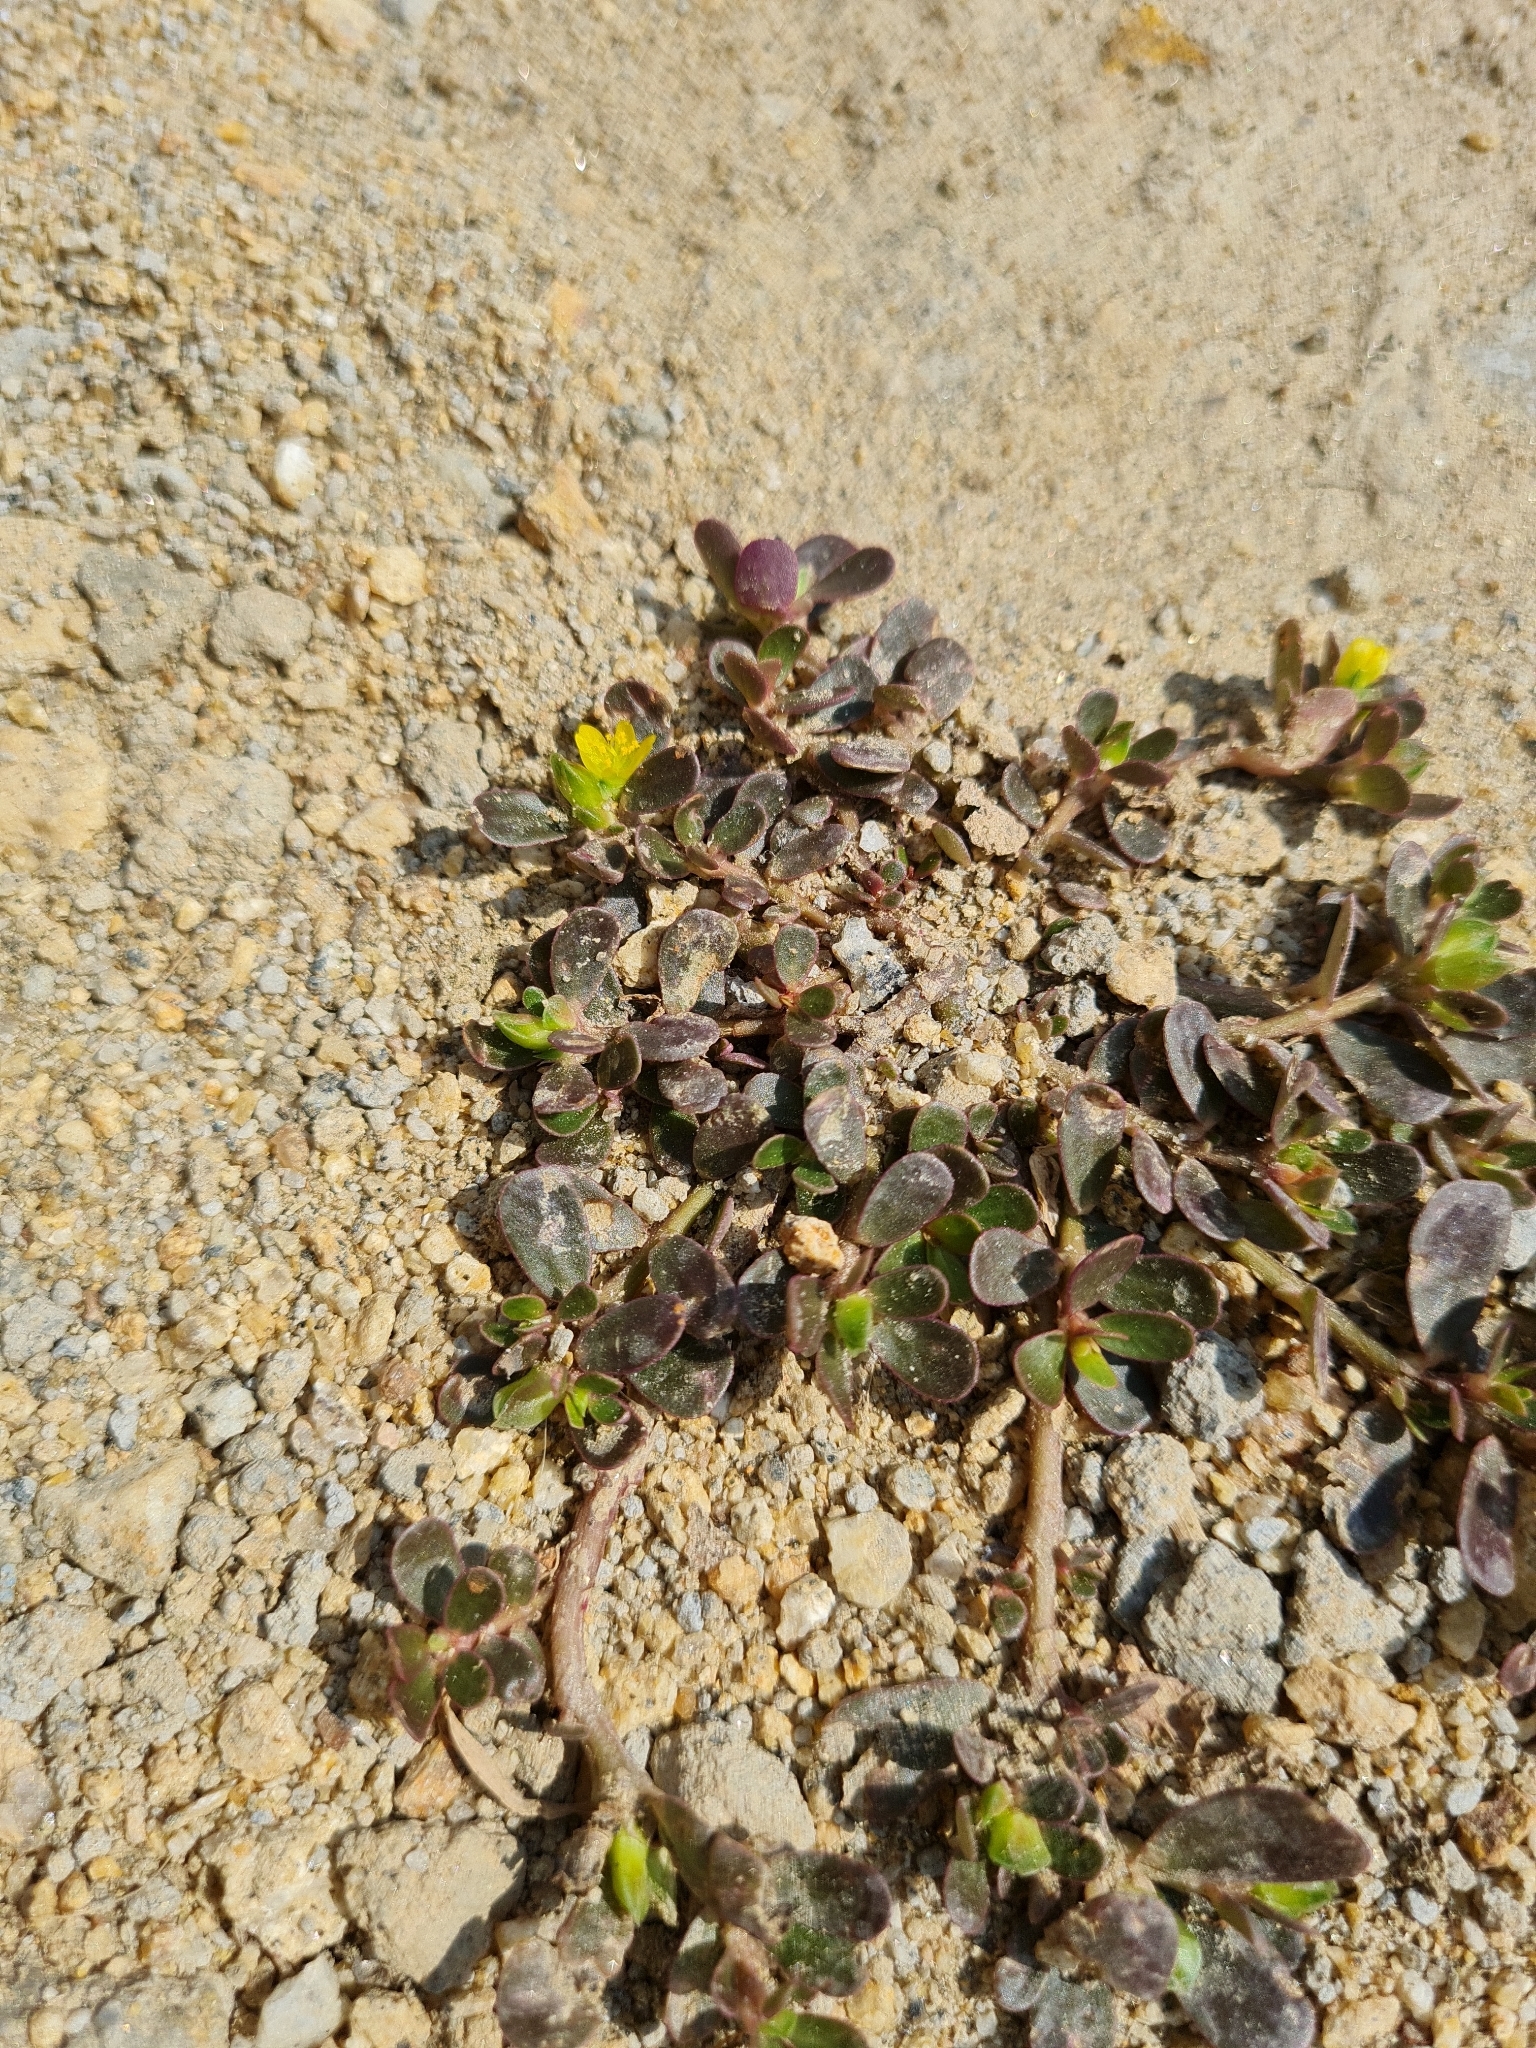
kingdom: Plantae
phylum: Tracheophyta
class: Magnoliopsida
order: Caryophyllales
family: Portulacaceae
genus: Portulaca
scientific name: Portulaca oleracea
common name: Common purslane
